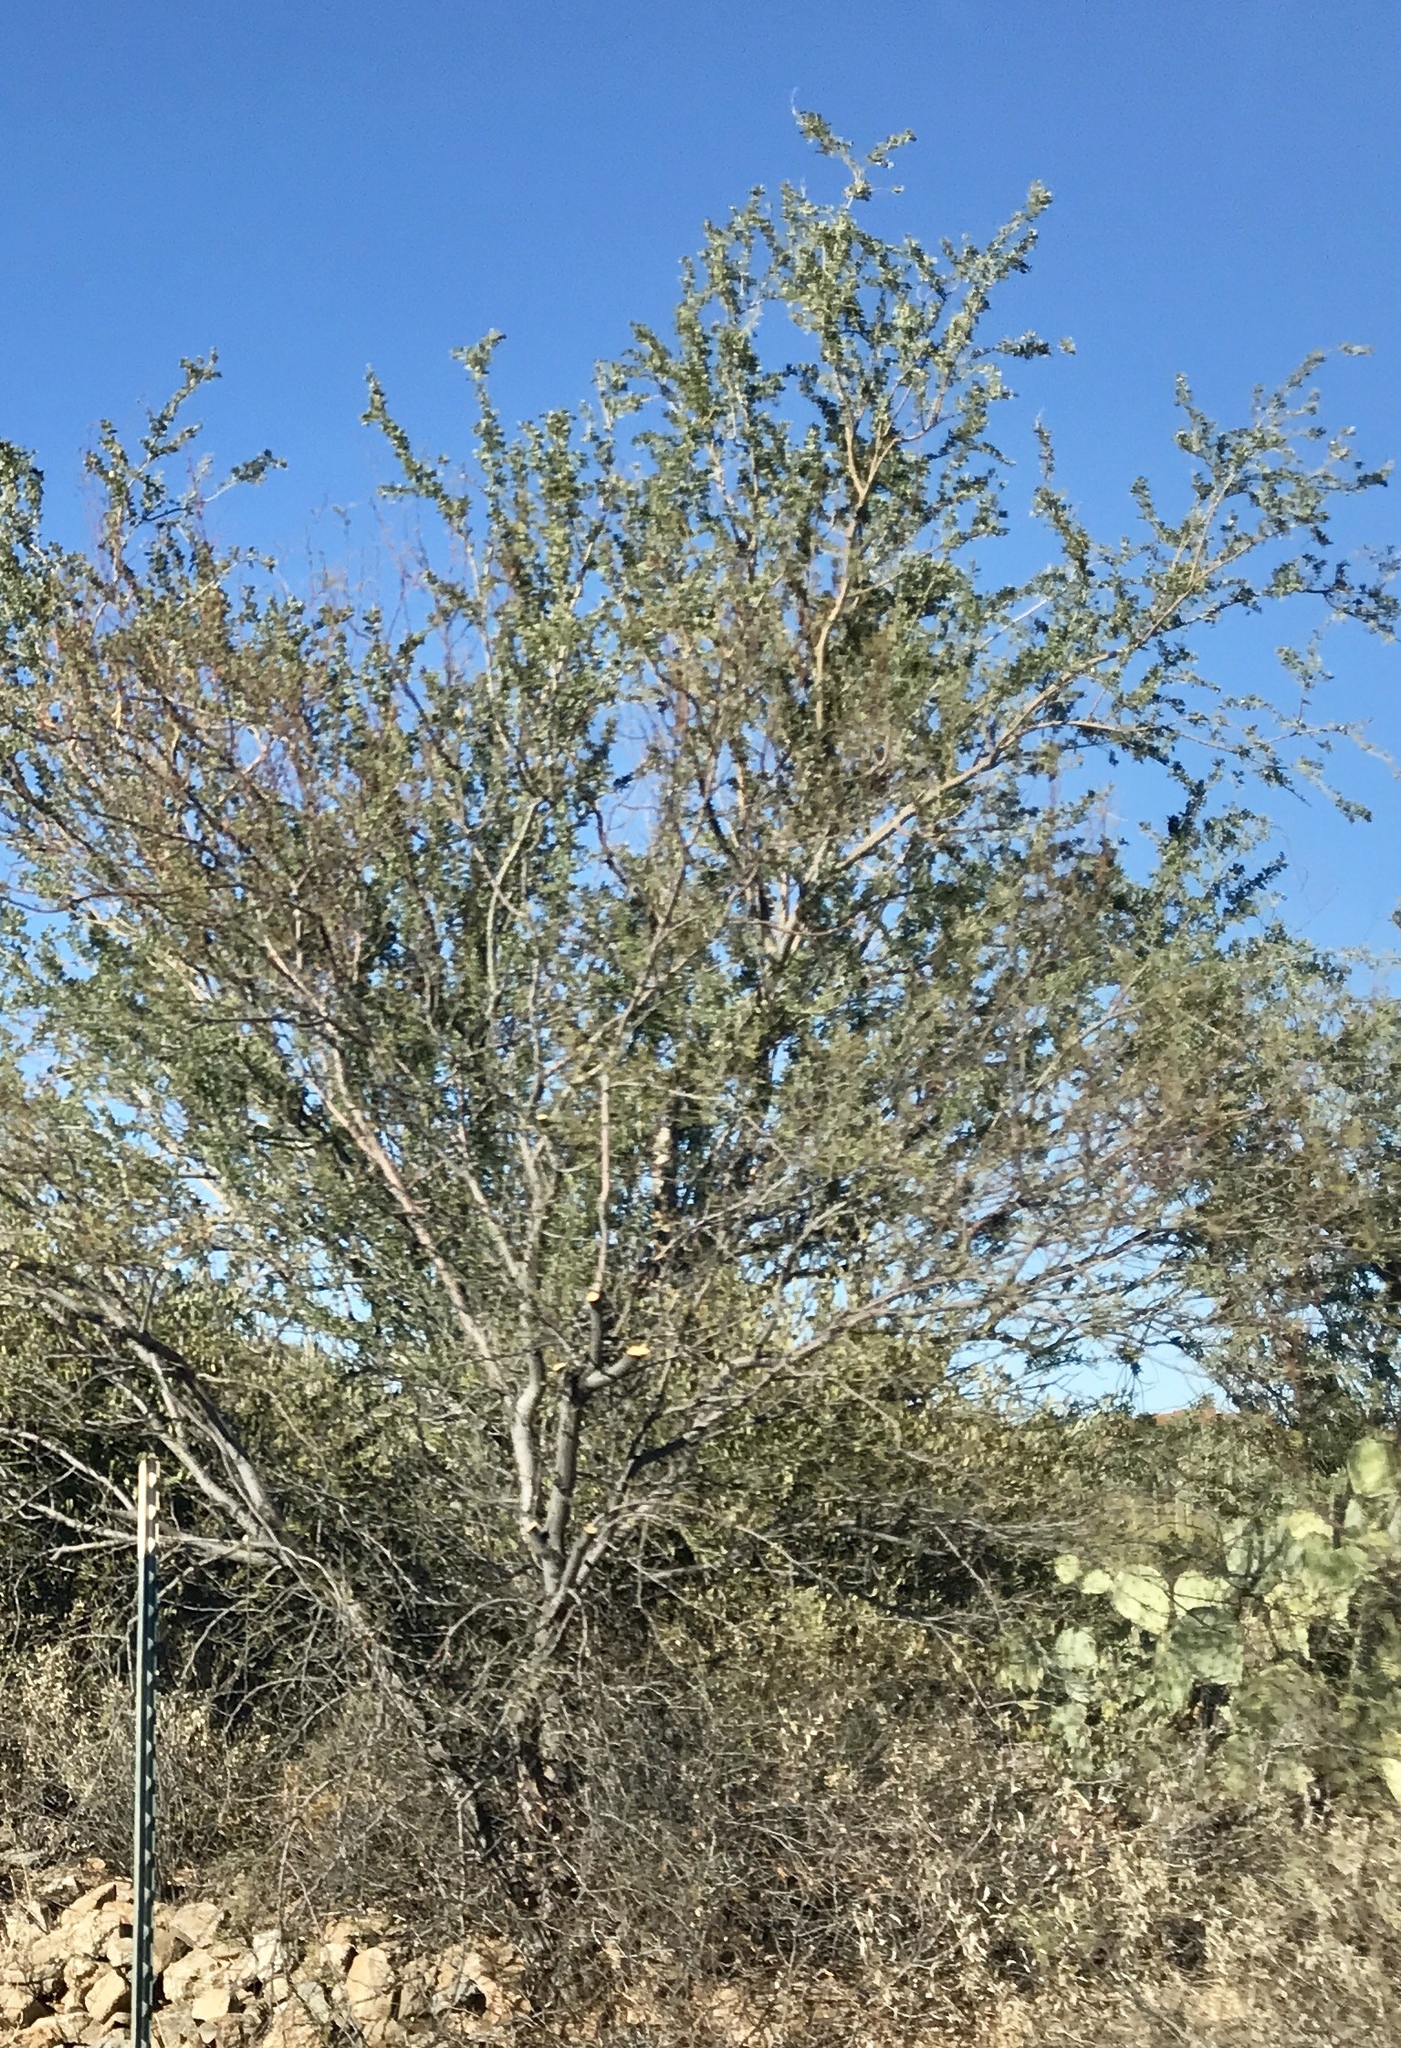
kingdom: Plantae
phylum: Tracheophyta
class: Magnoliopsida
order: Fabales
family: Fabaceae
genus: Olneya
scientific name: Olneya tesota
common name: Desert ironwood
